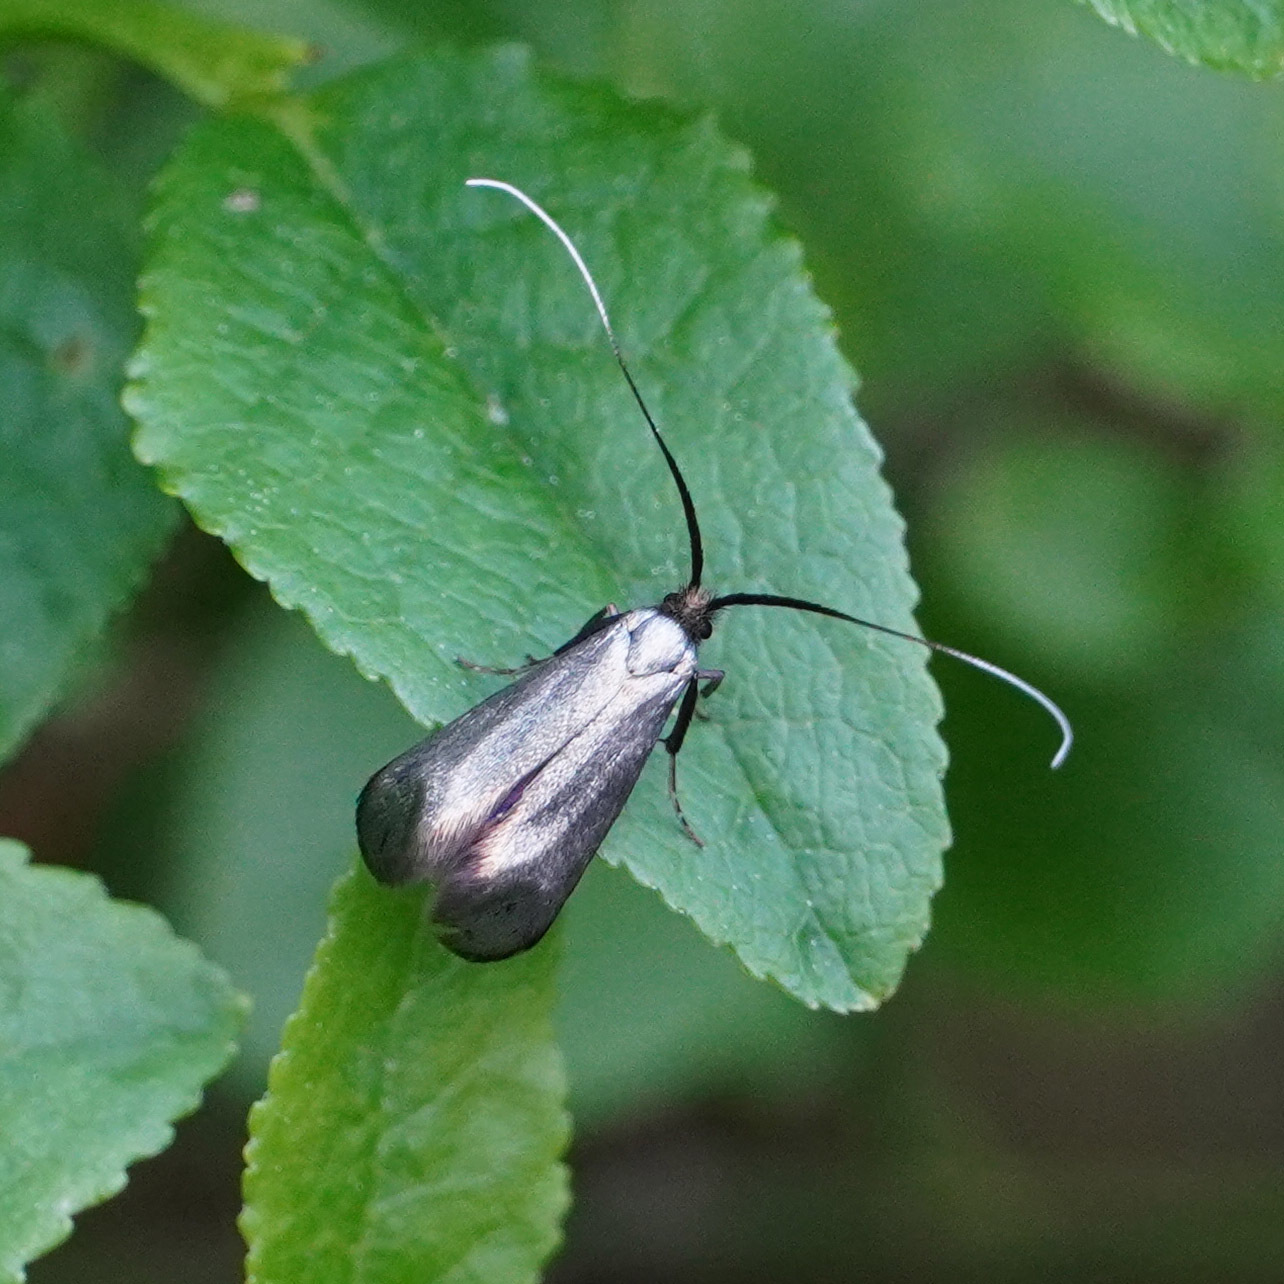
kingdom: Animalia
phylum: Arthropoda
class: Insecta
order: Lepidoptera
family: Adelidae
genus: Adela
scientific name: Adela viridella
